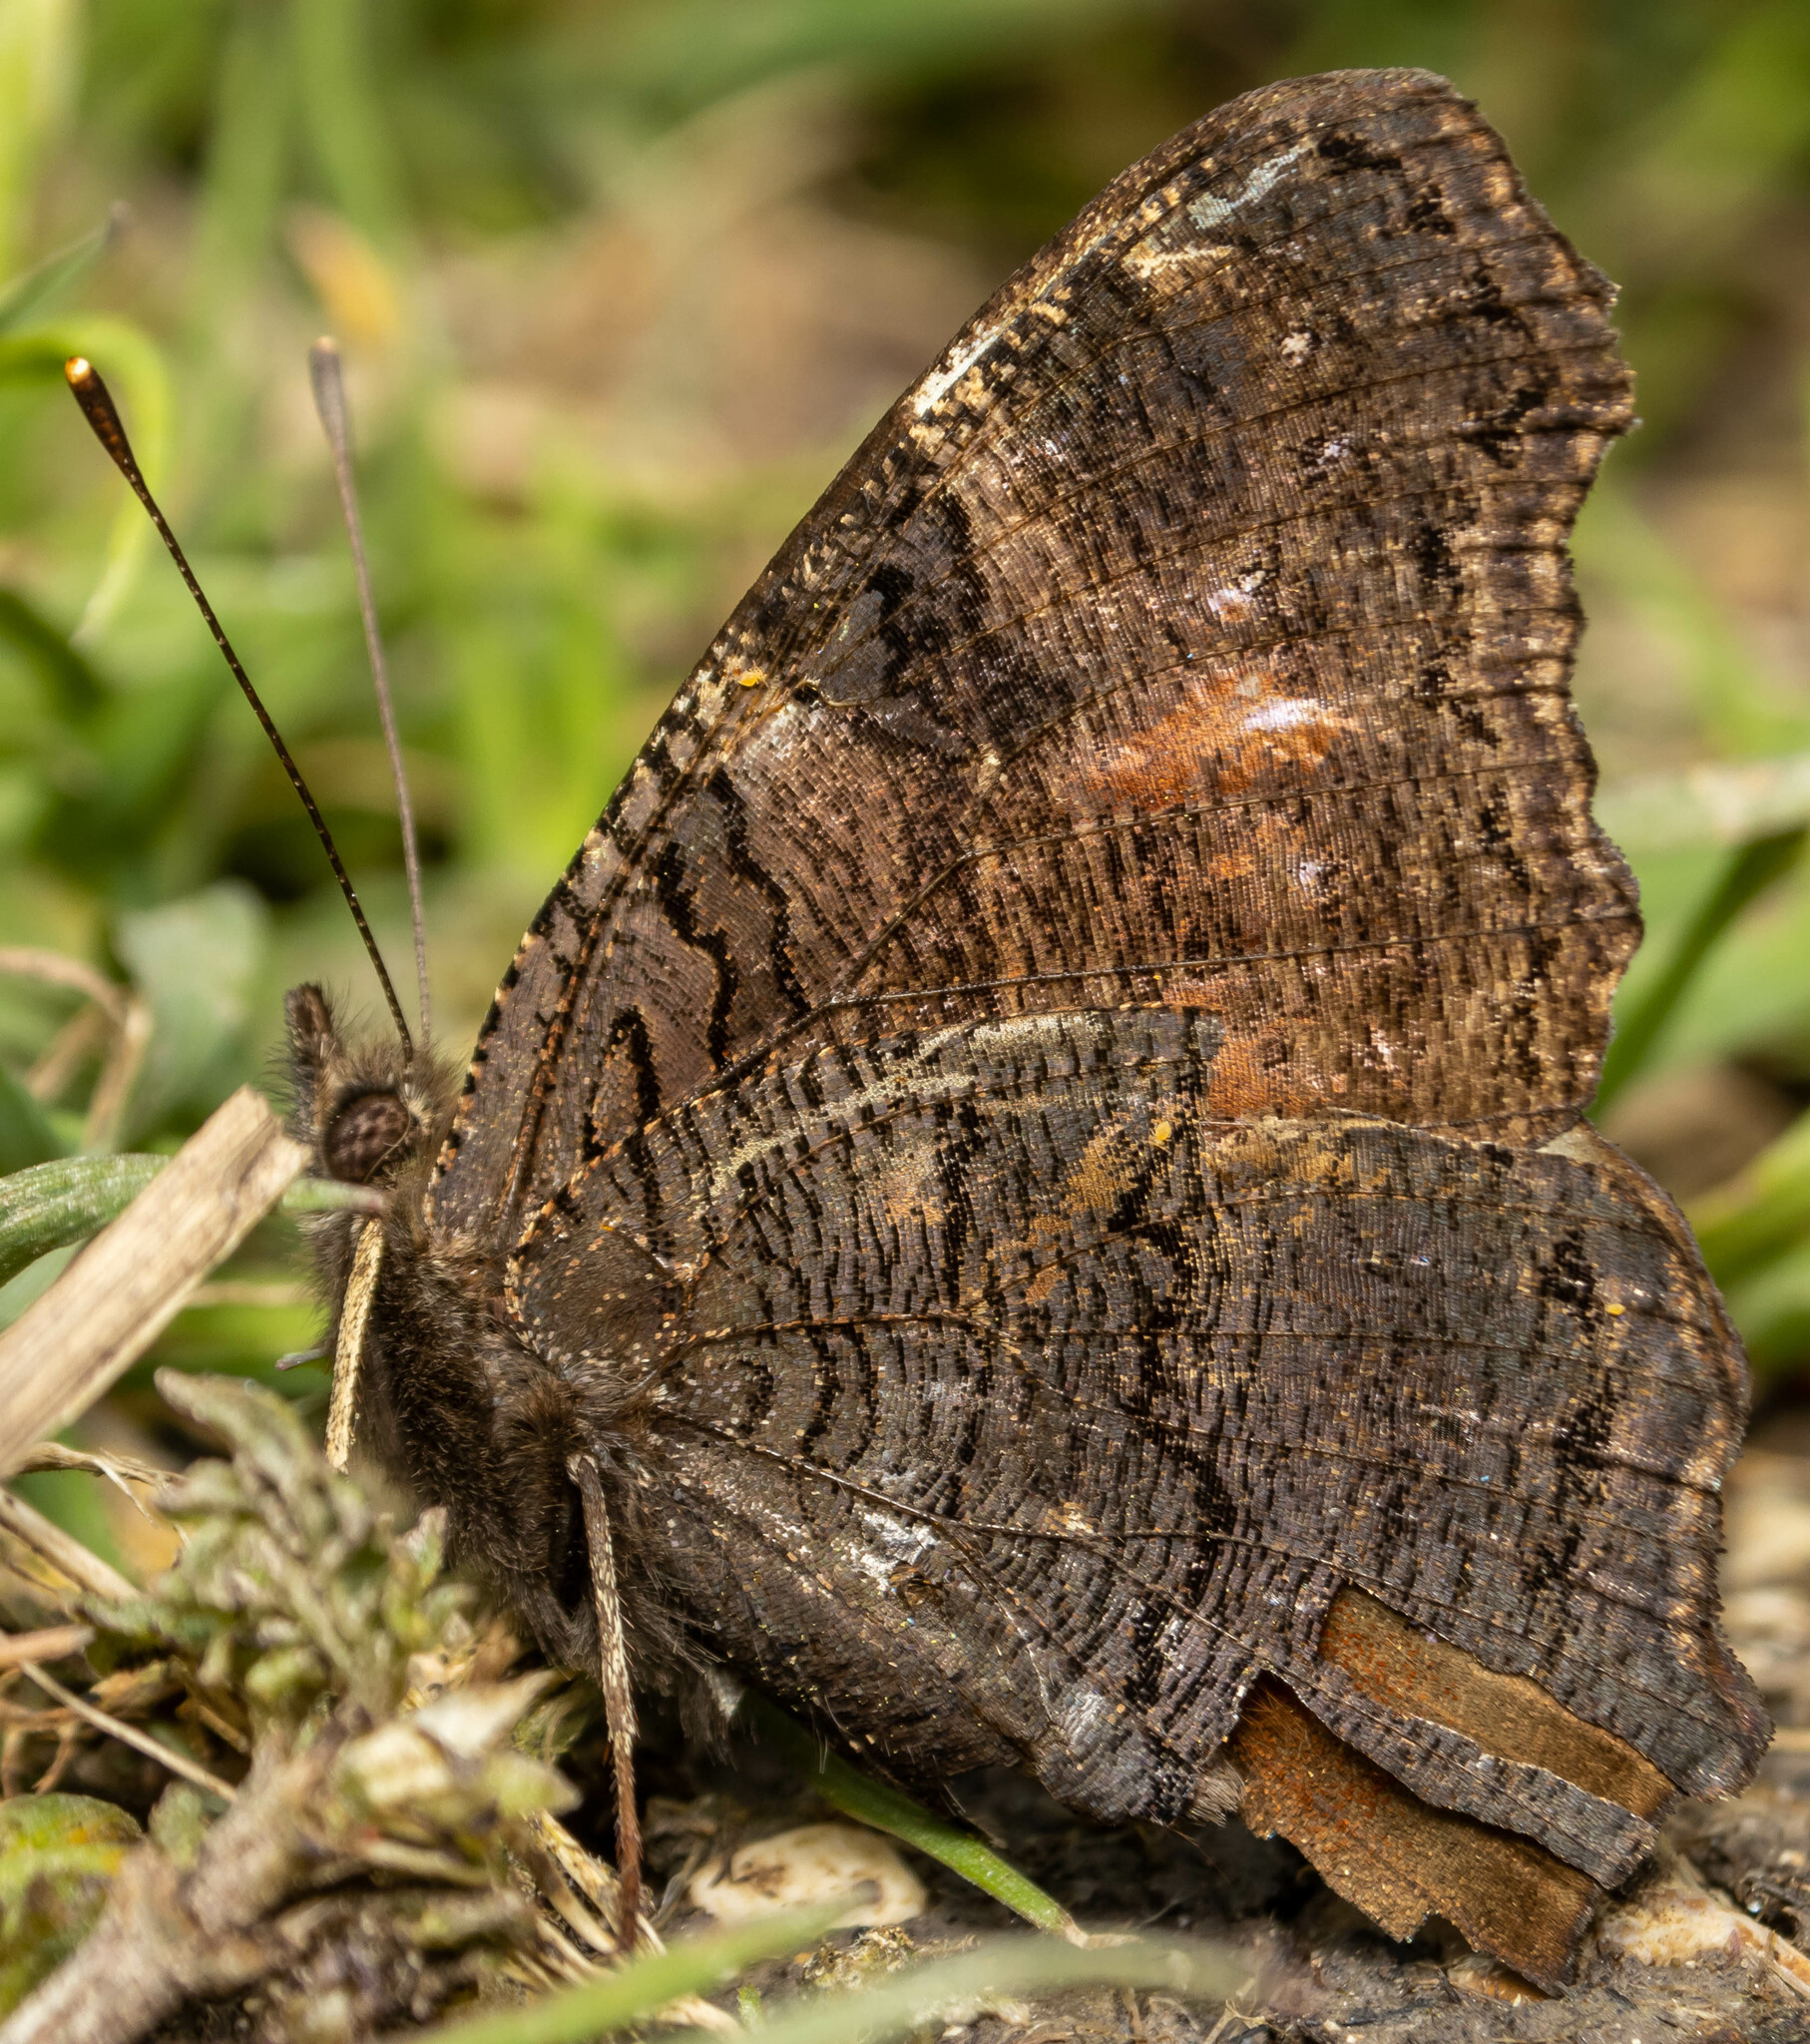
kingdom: Animalia
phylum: Arthropoda
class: Insecta
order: Lepidoptera
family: Nymphalidae
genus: Aglais
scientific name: Aglais io
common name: Peacock
